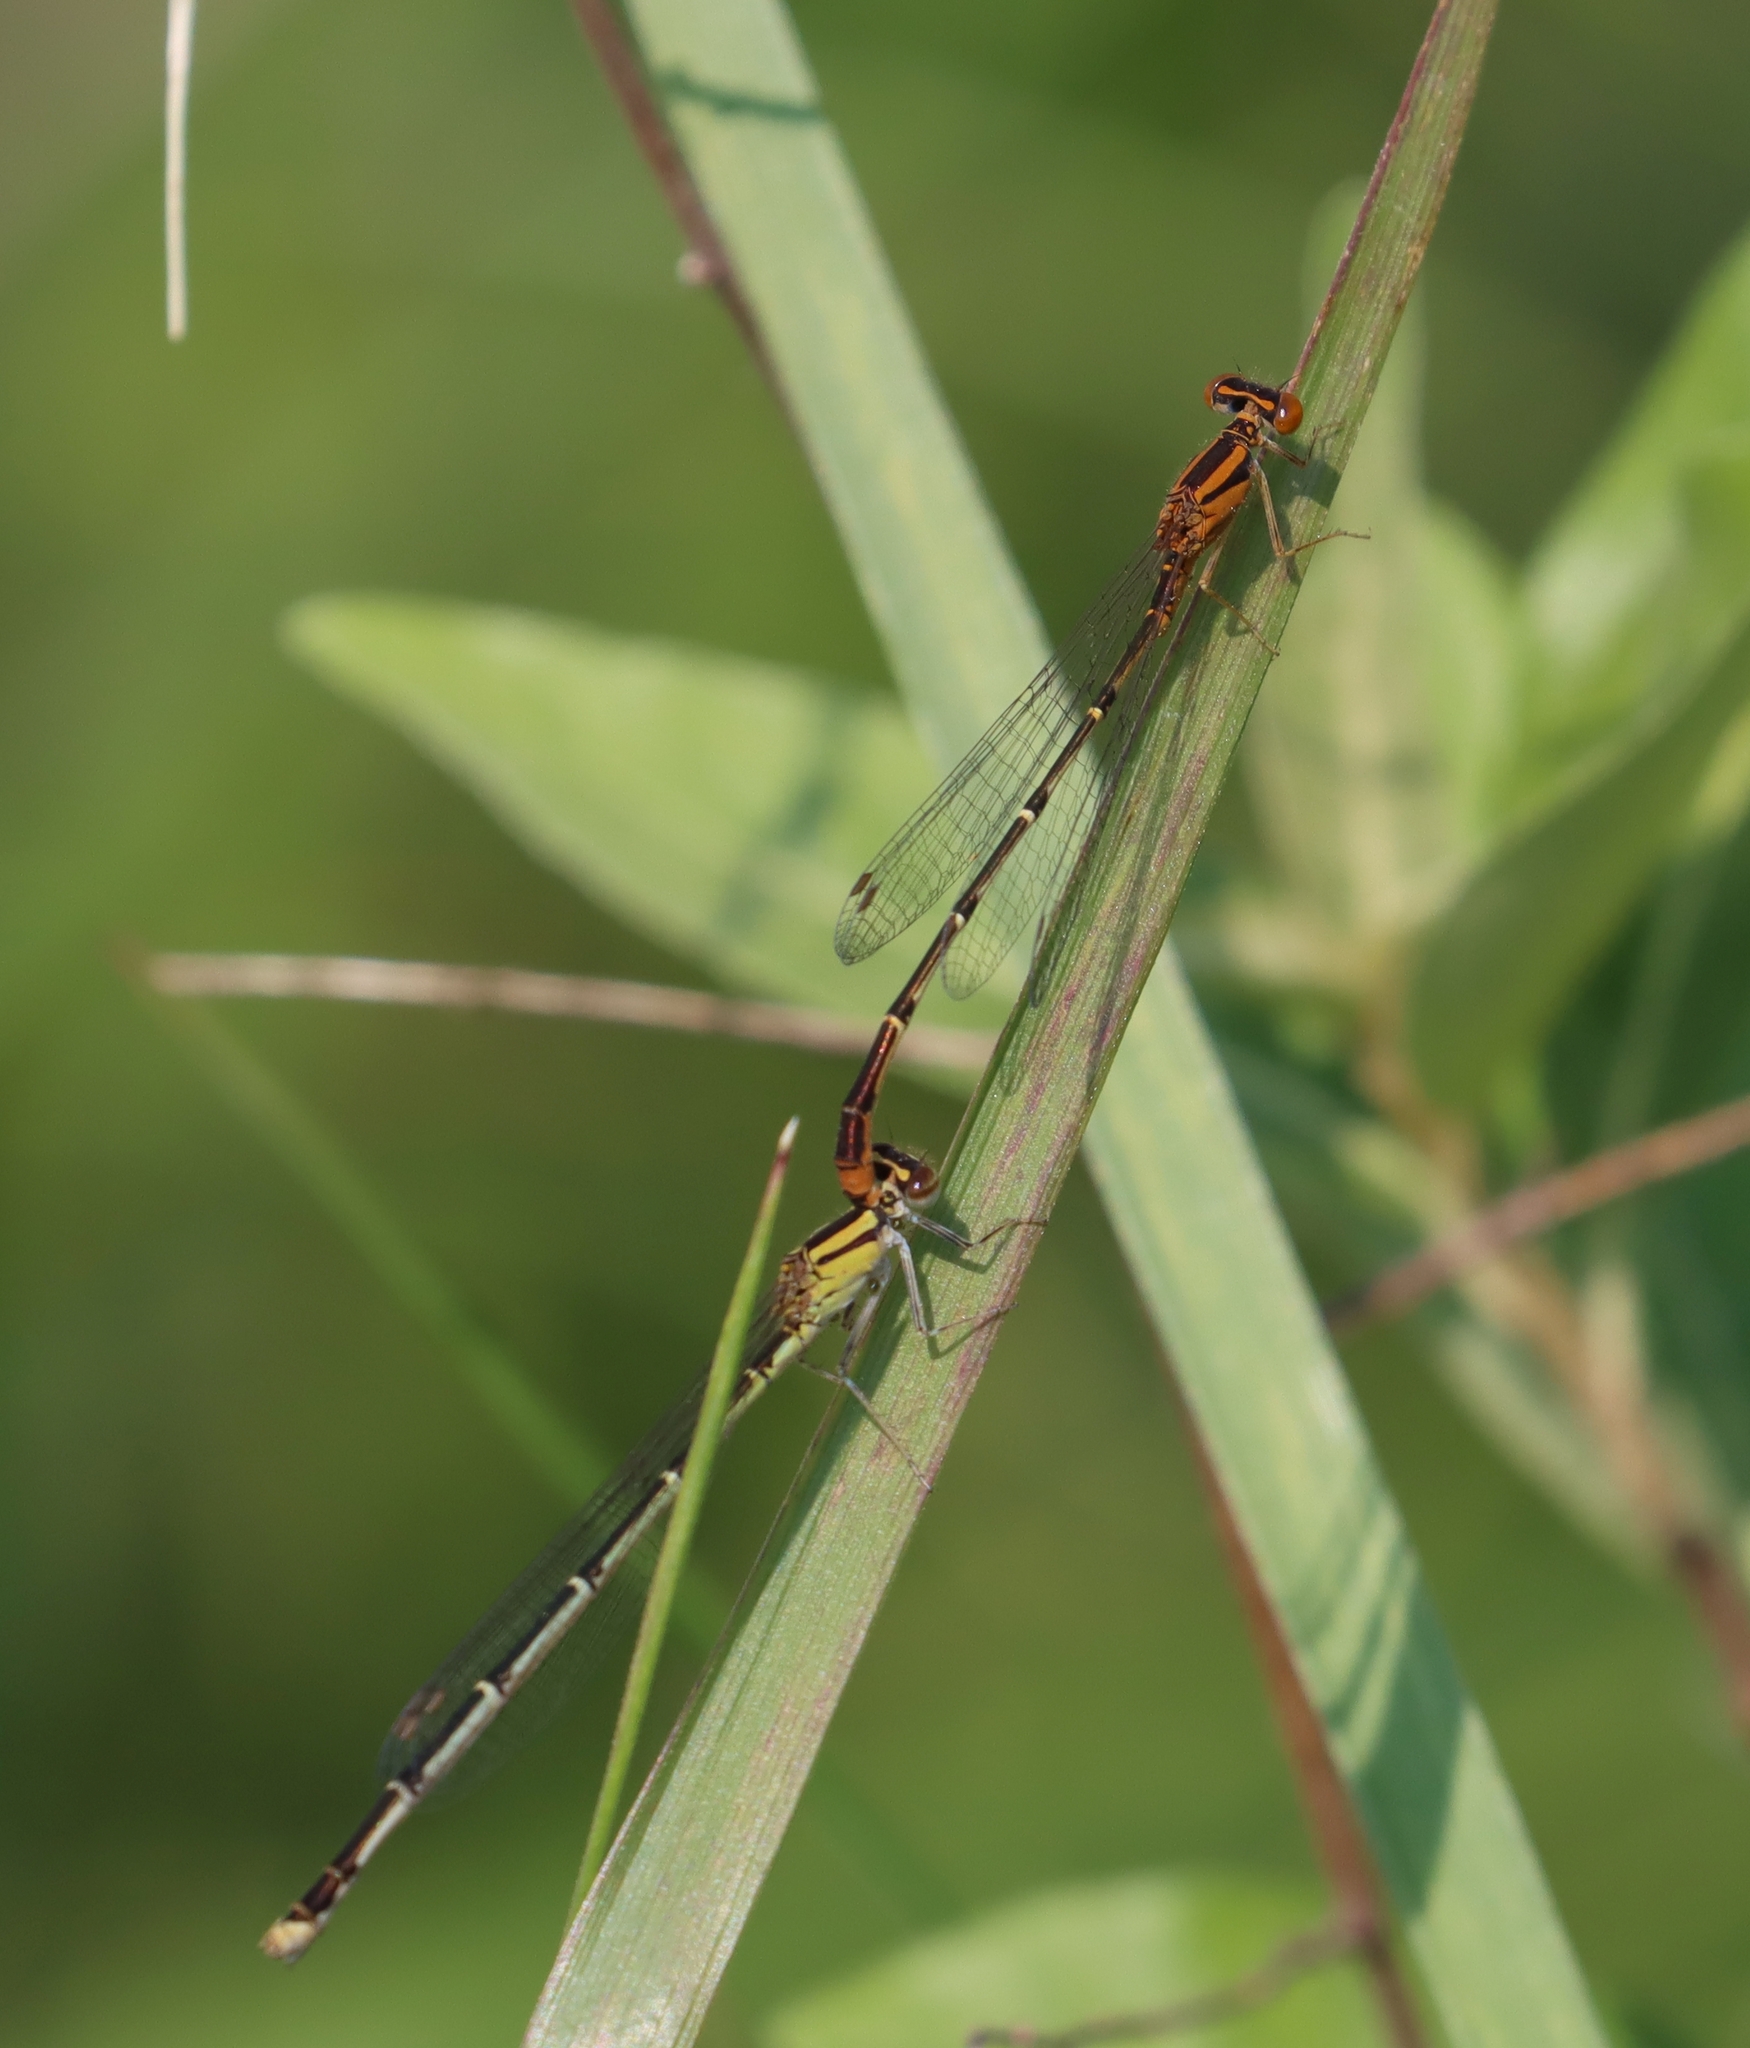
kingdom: Animalia
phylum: Arthropoda
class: Insecta
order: Odonata
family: Coenagrionidae
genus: Enallagma
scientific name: Enallagma signatum
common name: Orange bluet
